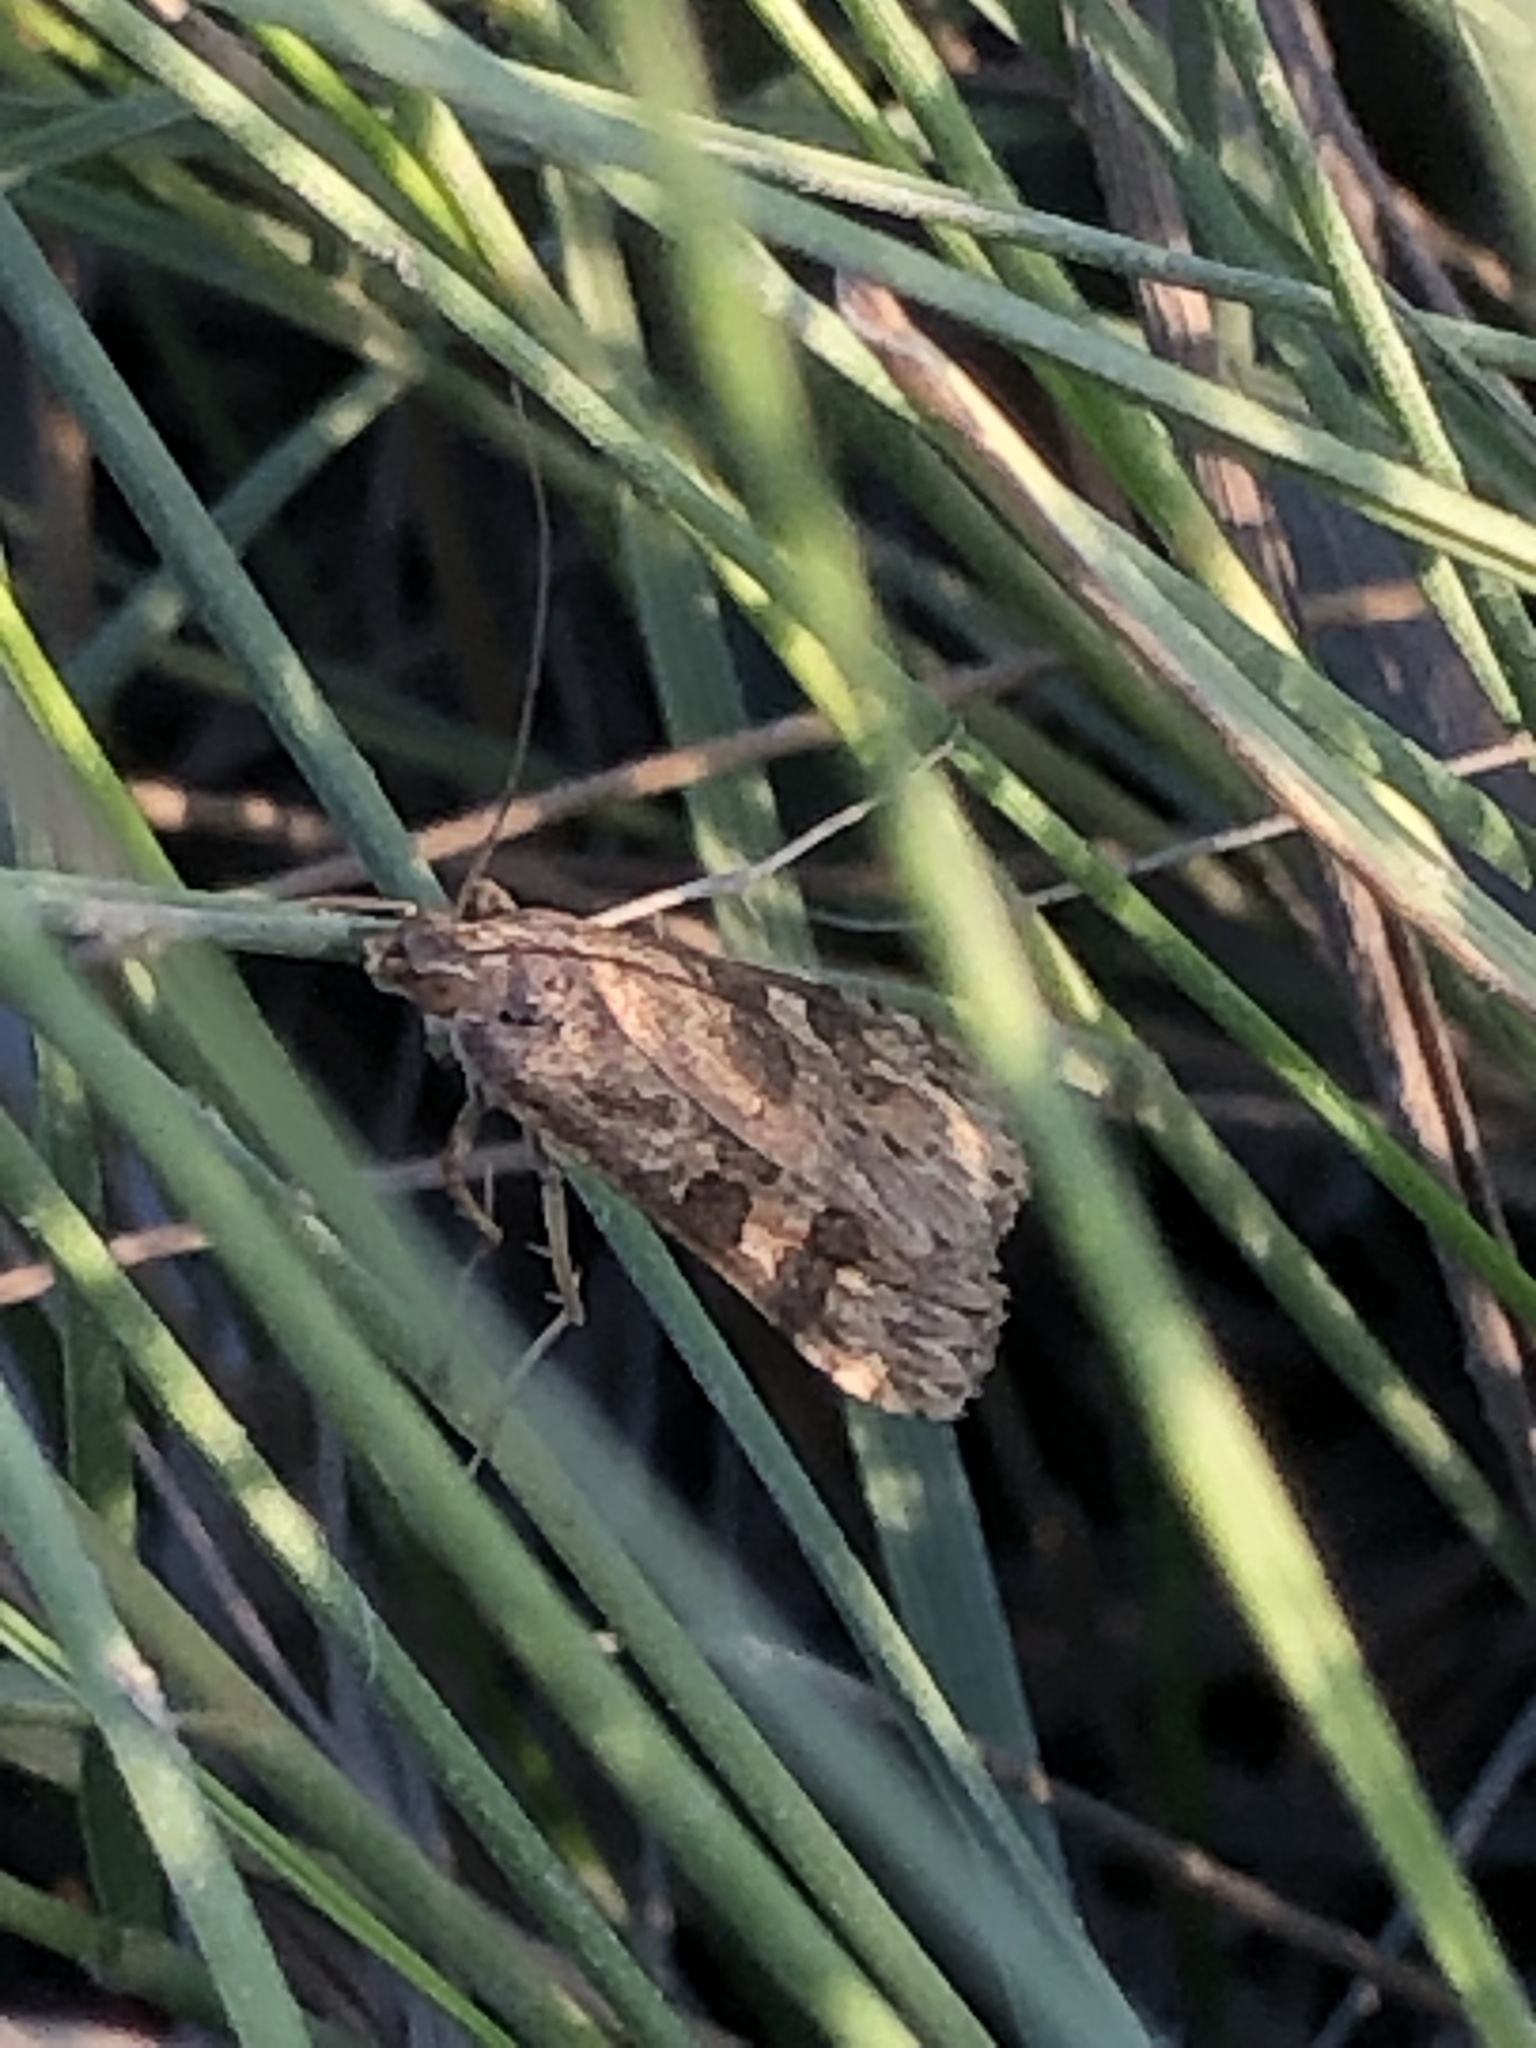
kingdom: Animalia
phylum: Arthropoda
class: Insecta
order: Lepidoptera
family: Crambidae
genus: Nomophila
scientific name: Nomophila nearctica
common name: American rush veneer
